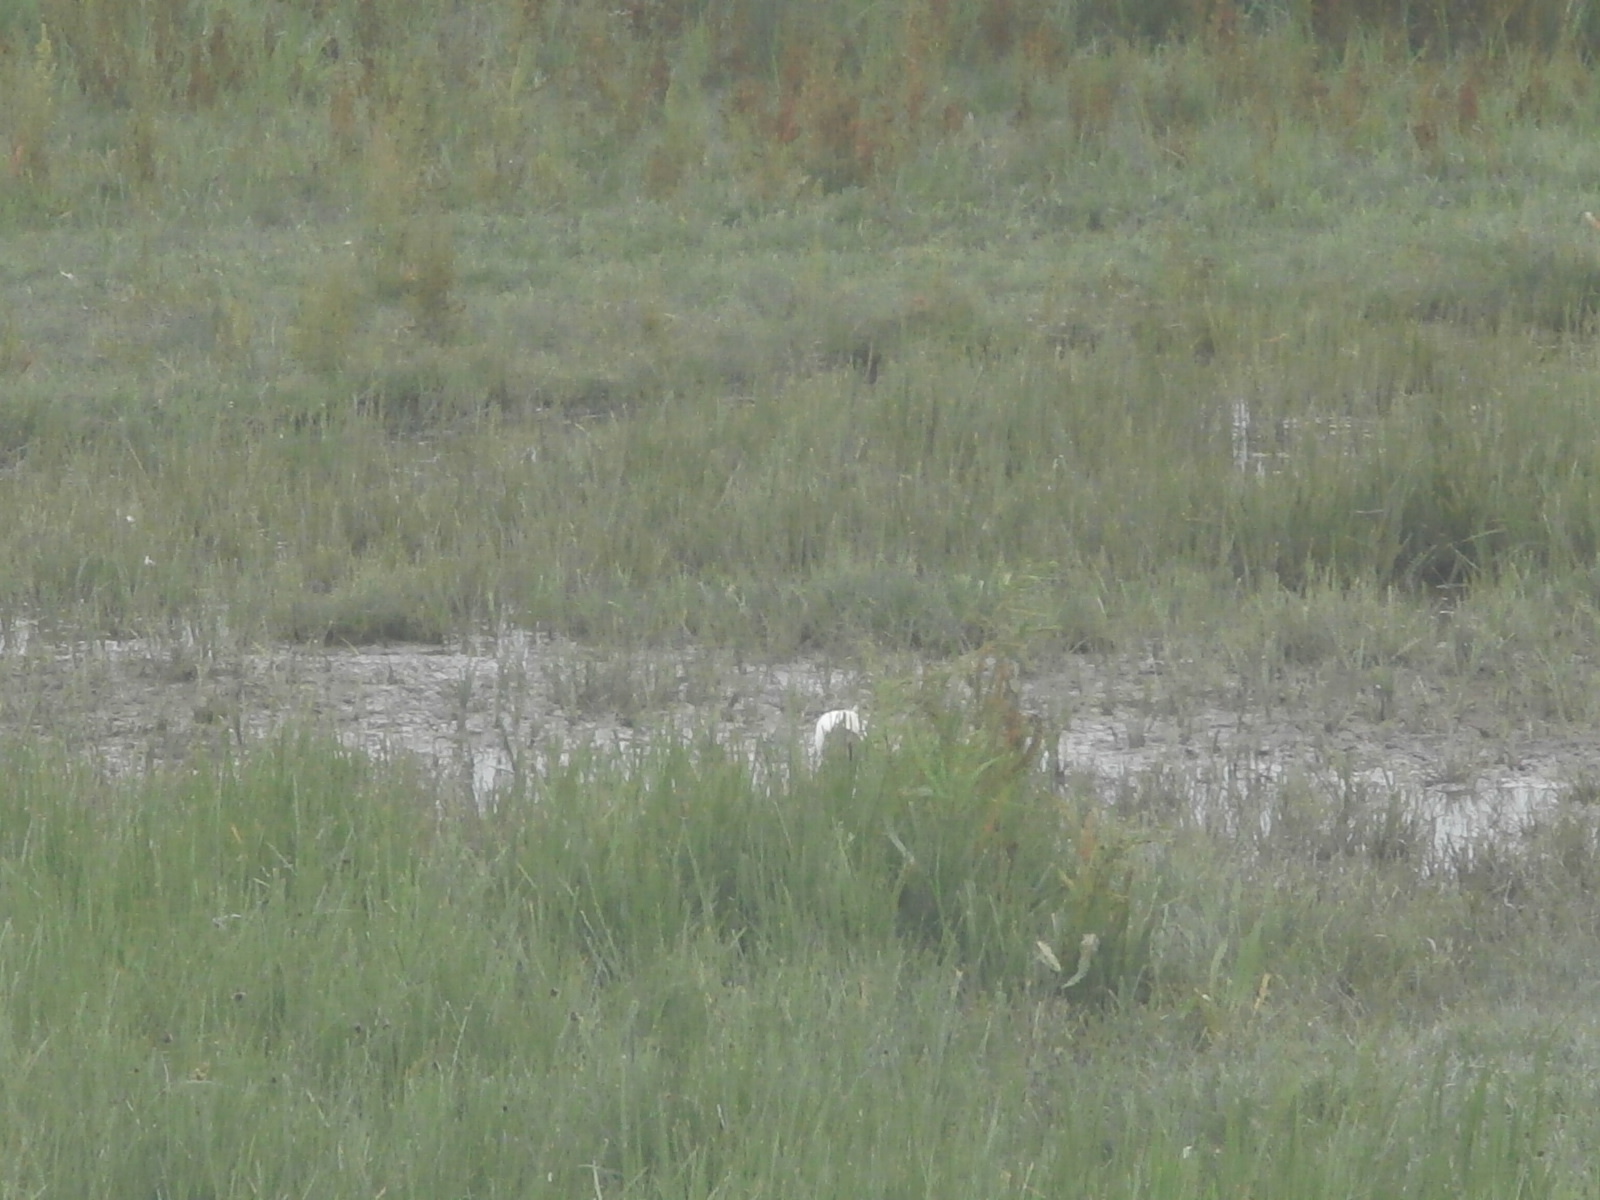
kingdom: Animalia
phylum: Chordata
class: Aves
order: Pelecaniformes
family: Ardeidae
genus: Egretta
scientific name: Egretta garzetta
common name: Little egret
